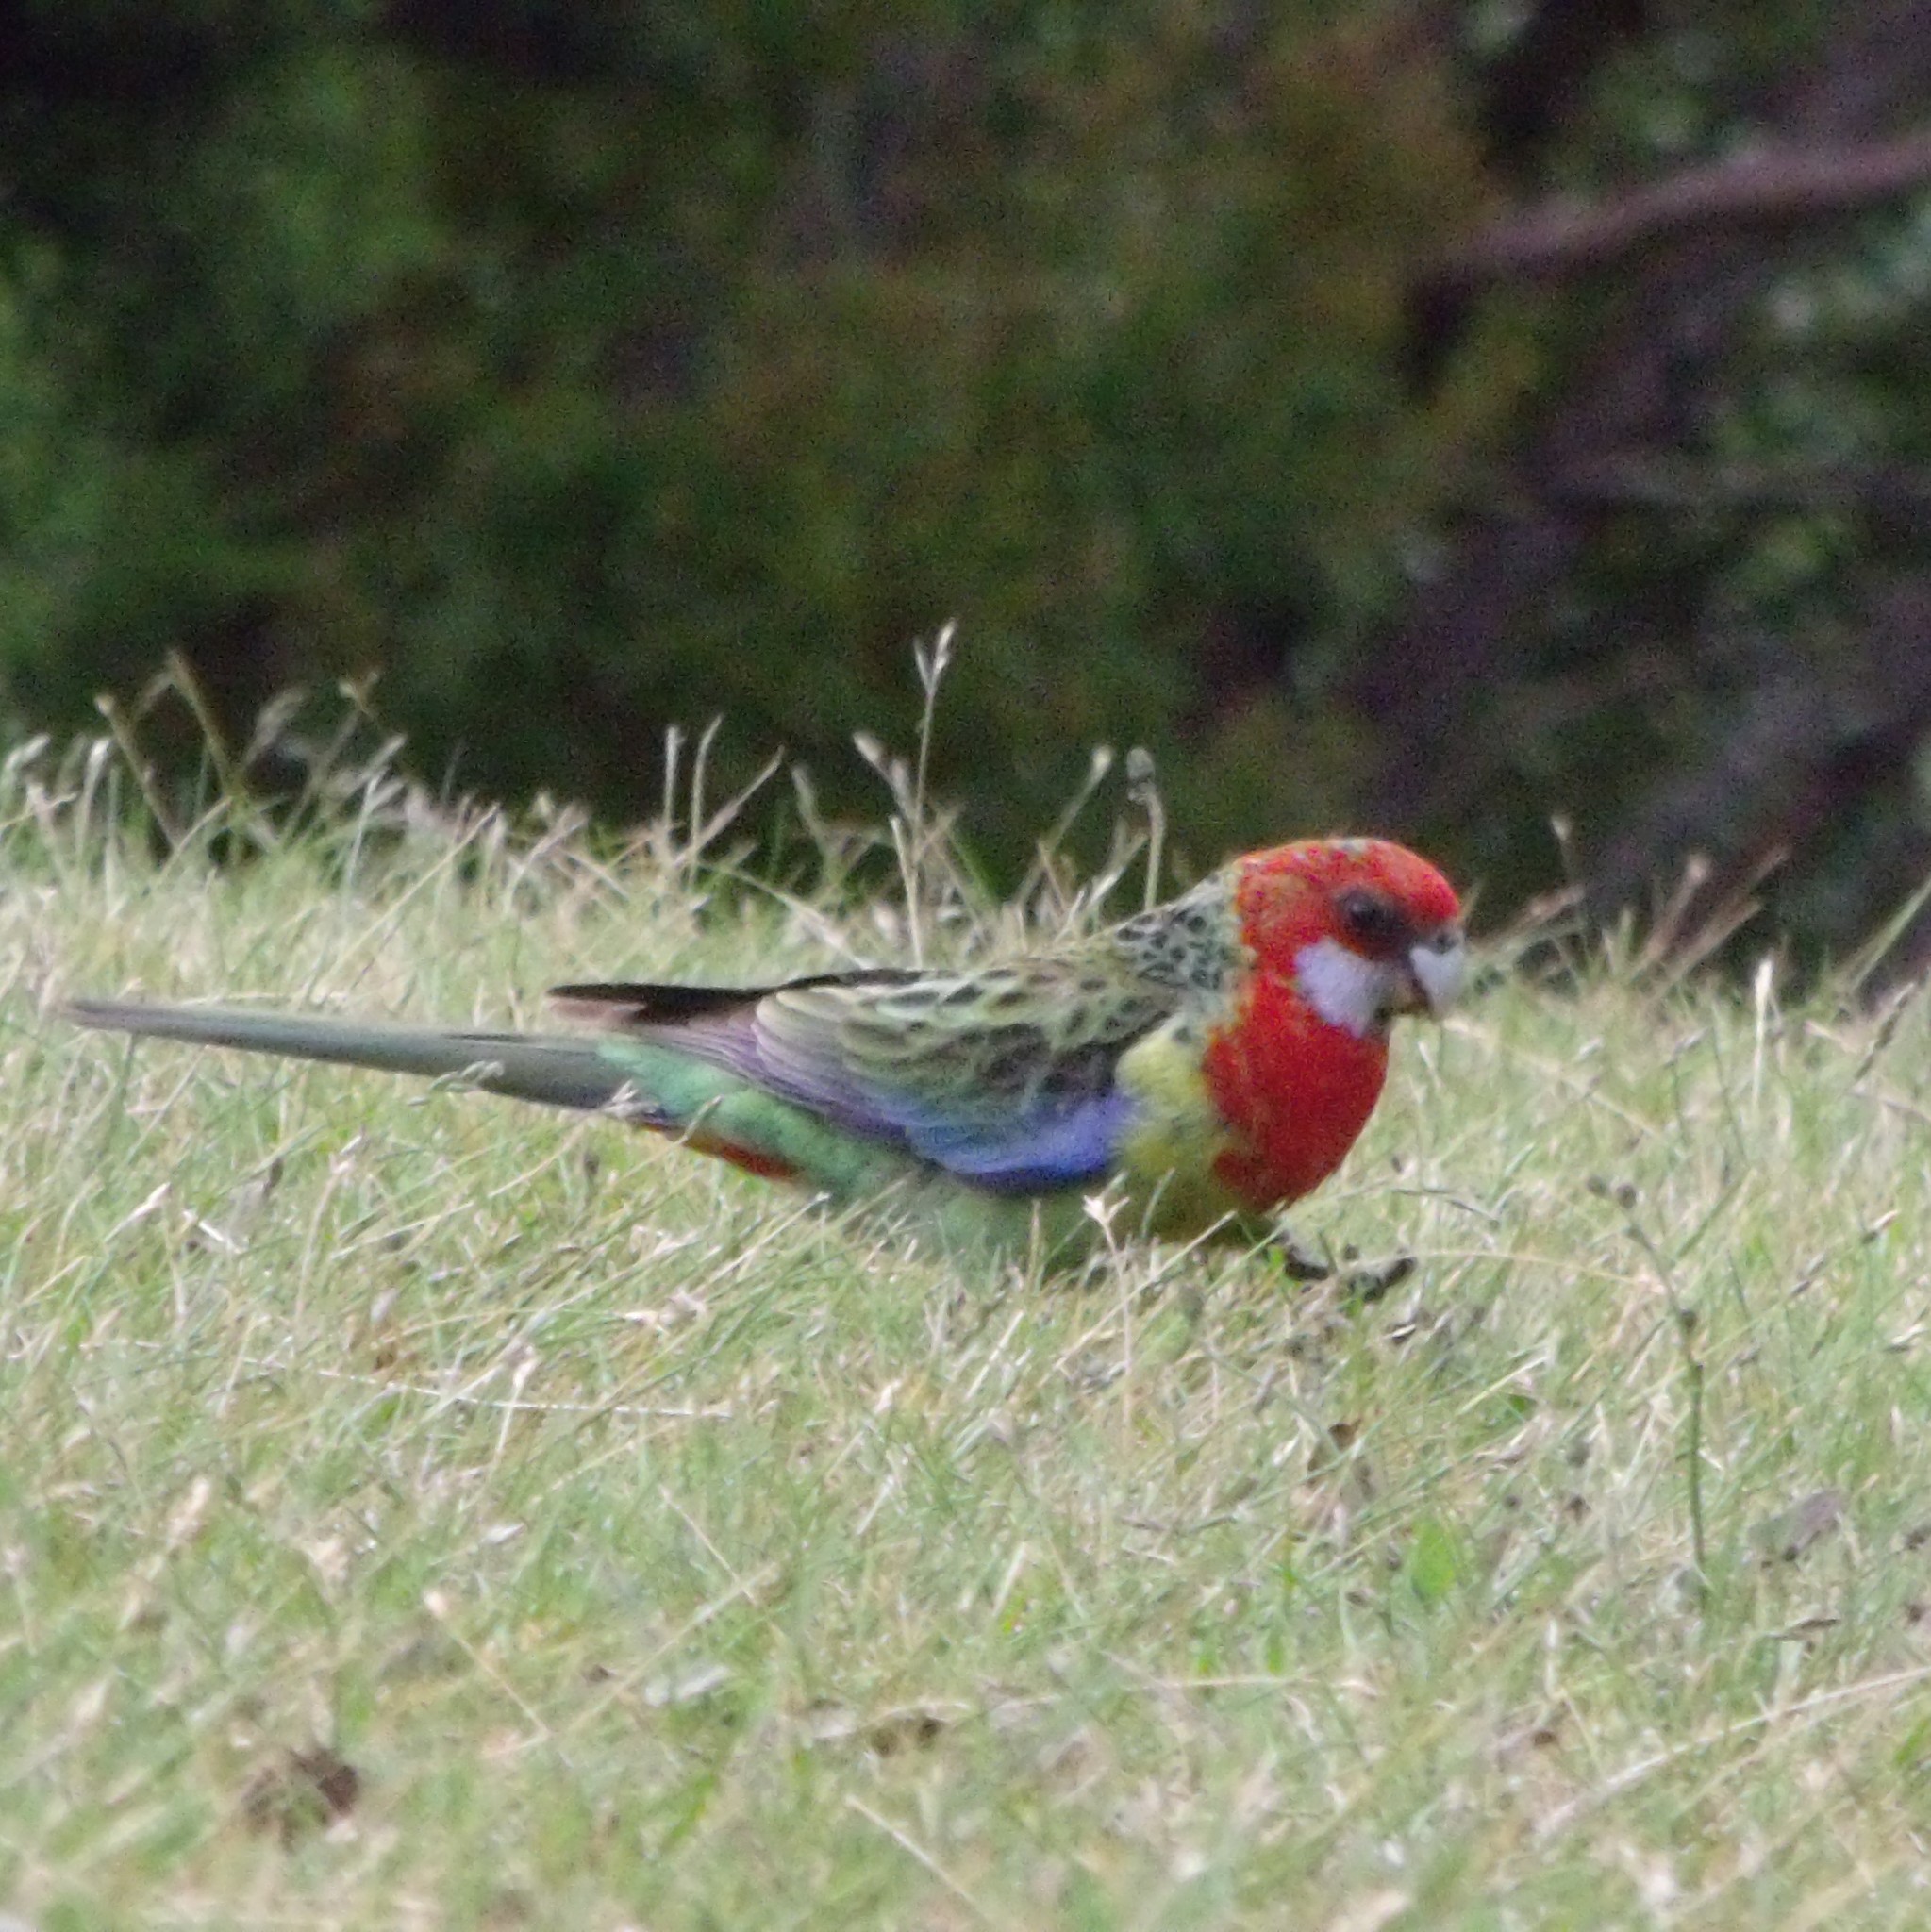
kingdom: Animalia
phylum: Chordata
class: Aves
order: Psittaciformes
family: Psittacidae
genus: Platycercus
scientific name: Platycercus eximius
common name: Eastern rosella
